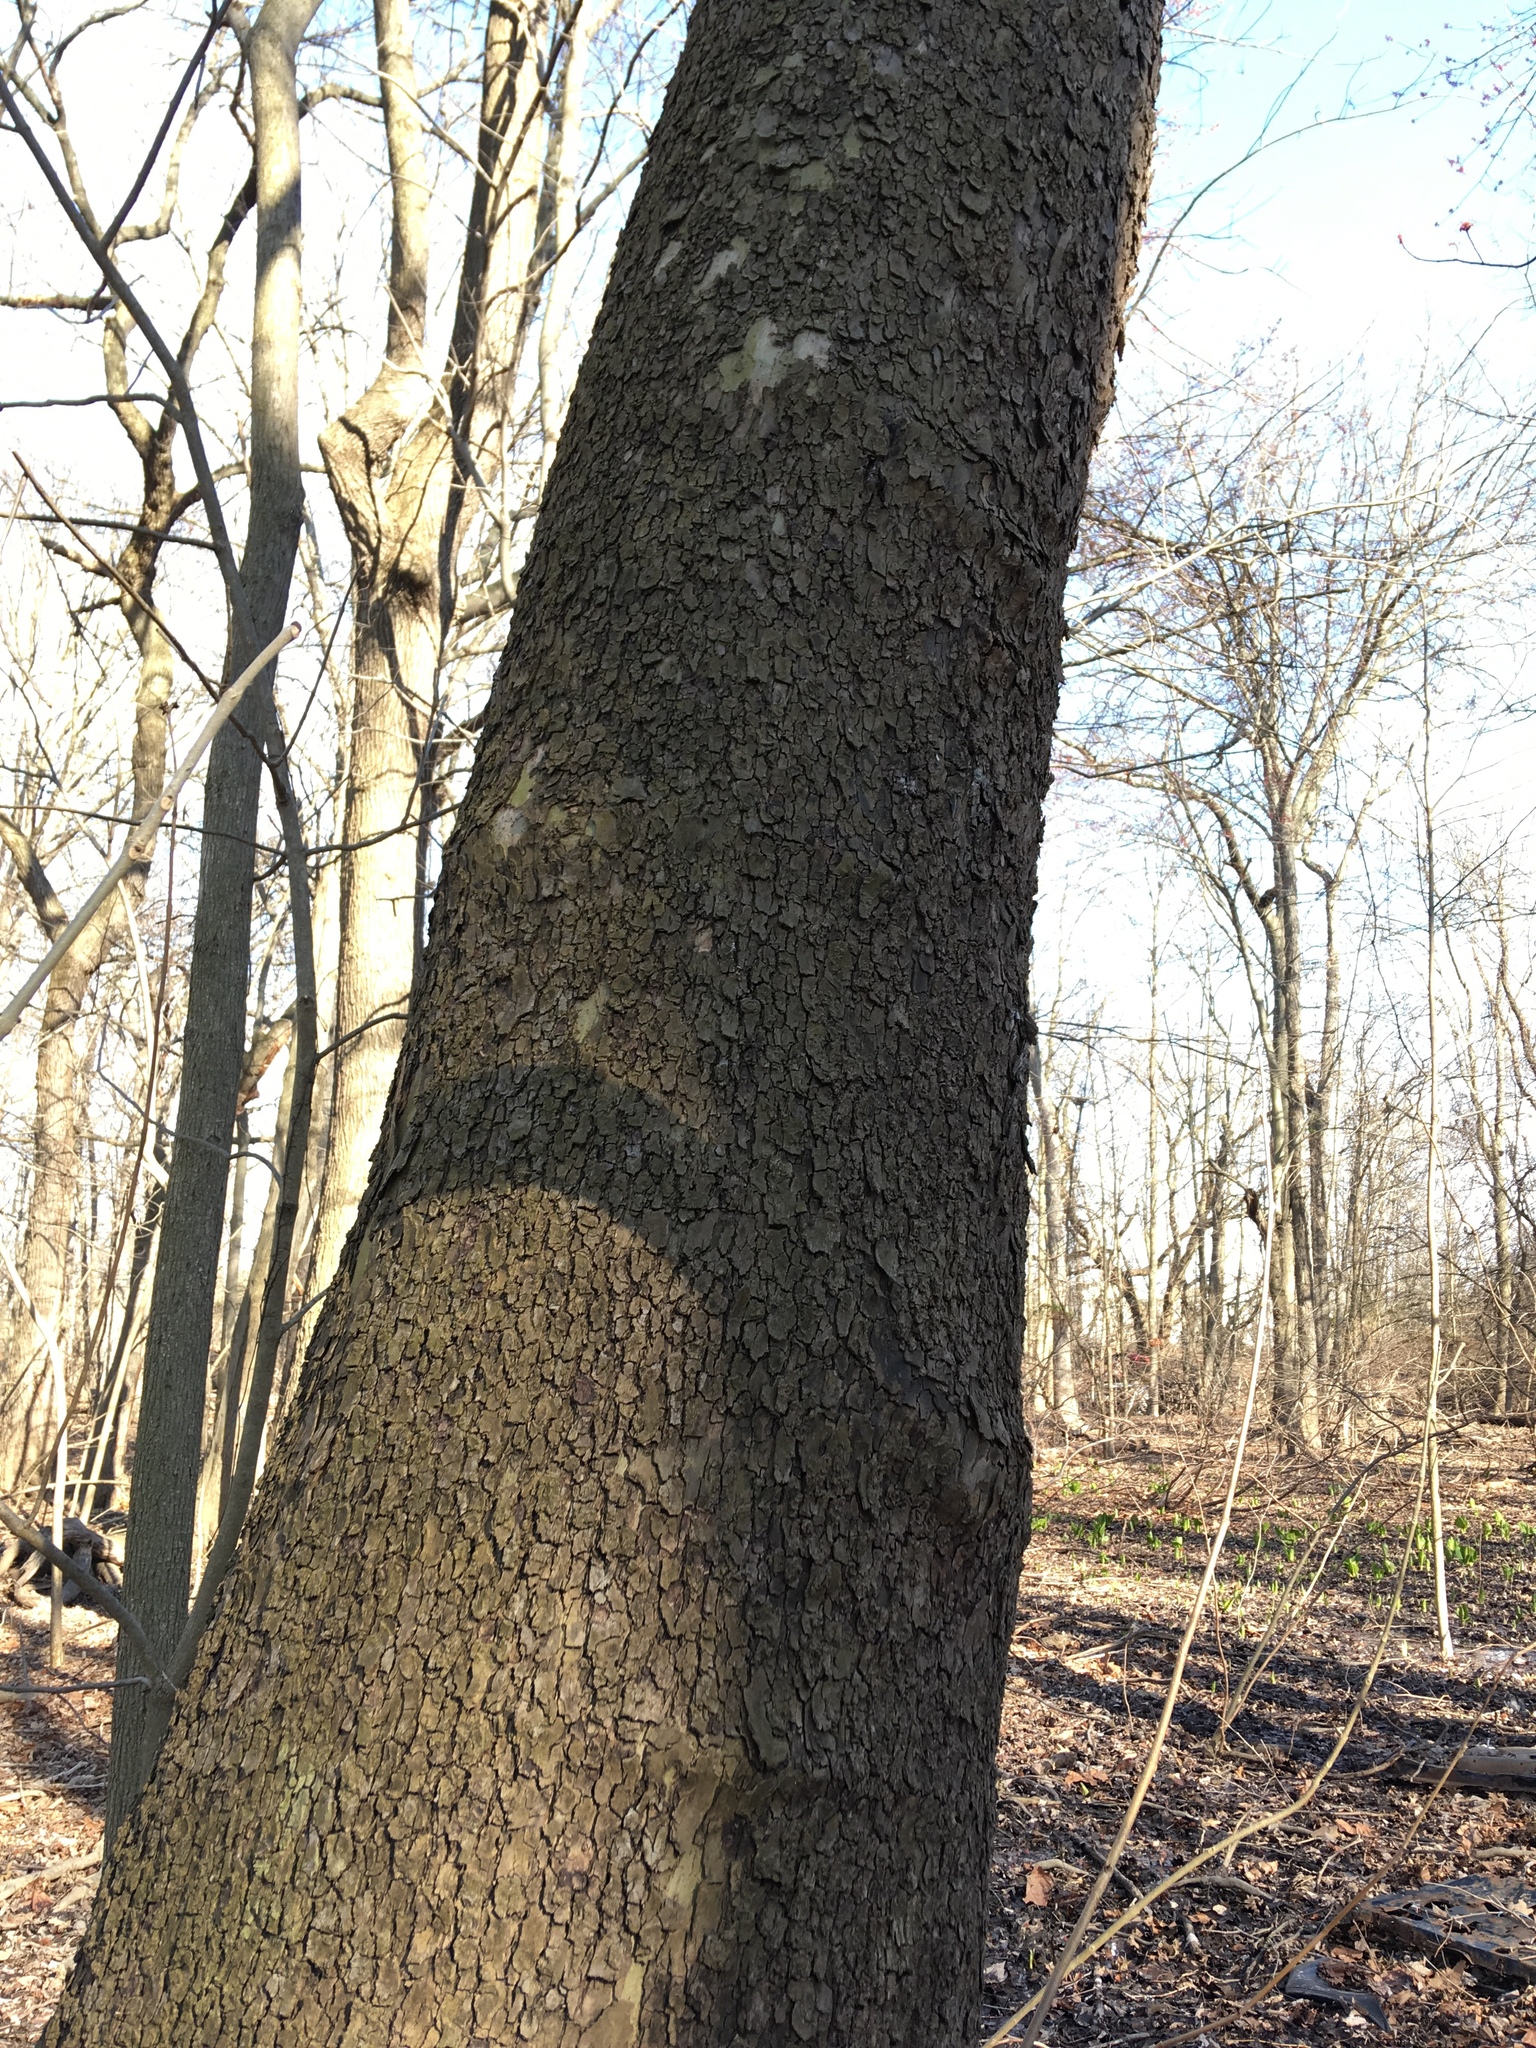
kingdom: Plantae
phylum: Tracheophyta
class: Magnoliopsida
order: Proteales
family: Platanaceae
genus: Platanus
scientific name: Platanus occidentalis
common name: American sycamore
